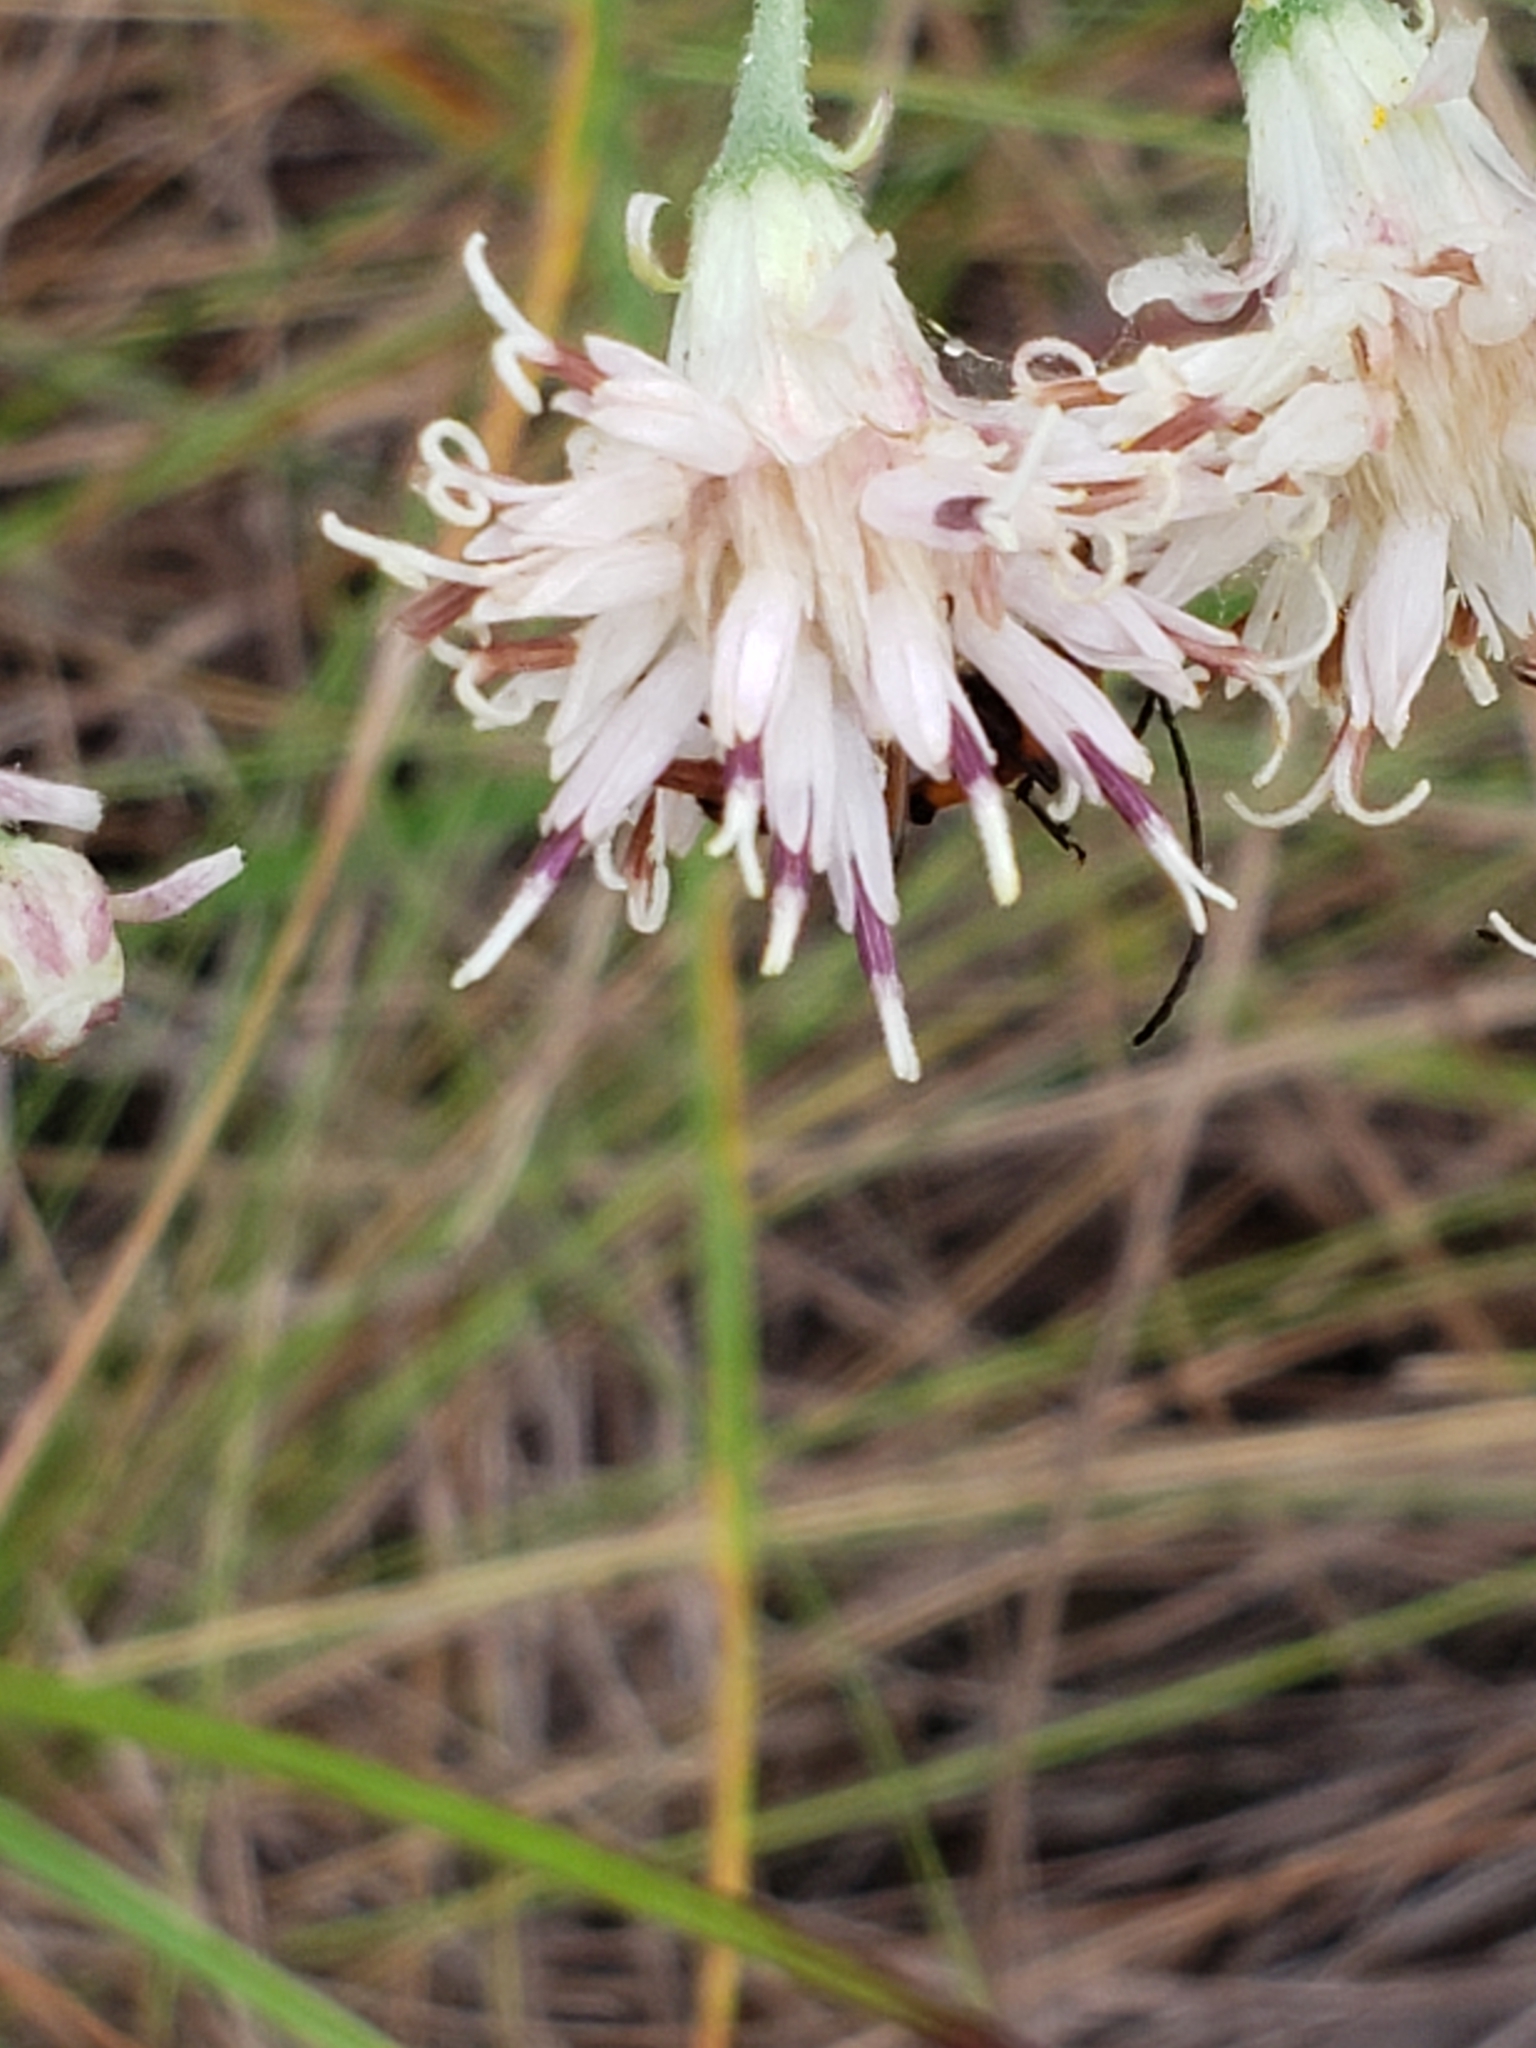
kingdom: Plantae
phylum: Tracheophyta
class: Magnoliopsida
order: Asterales
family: Asteraceae
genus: Palafoxia
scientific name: Palafoxia integrifolia
